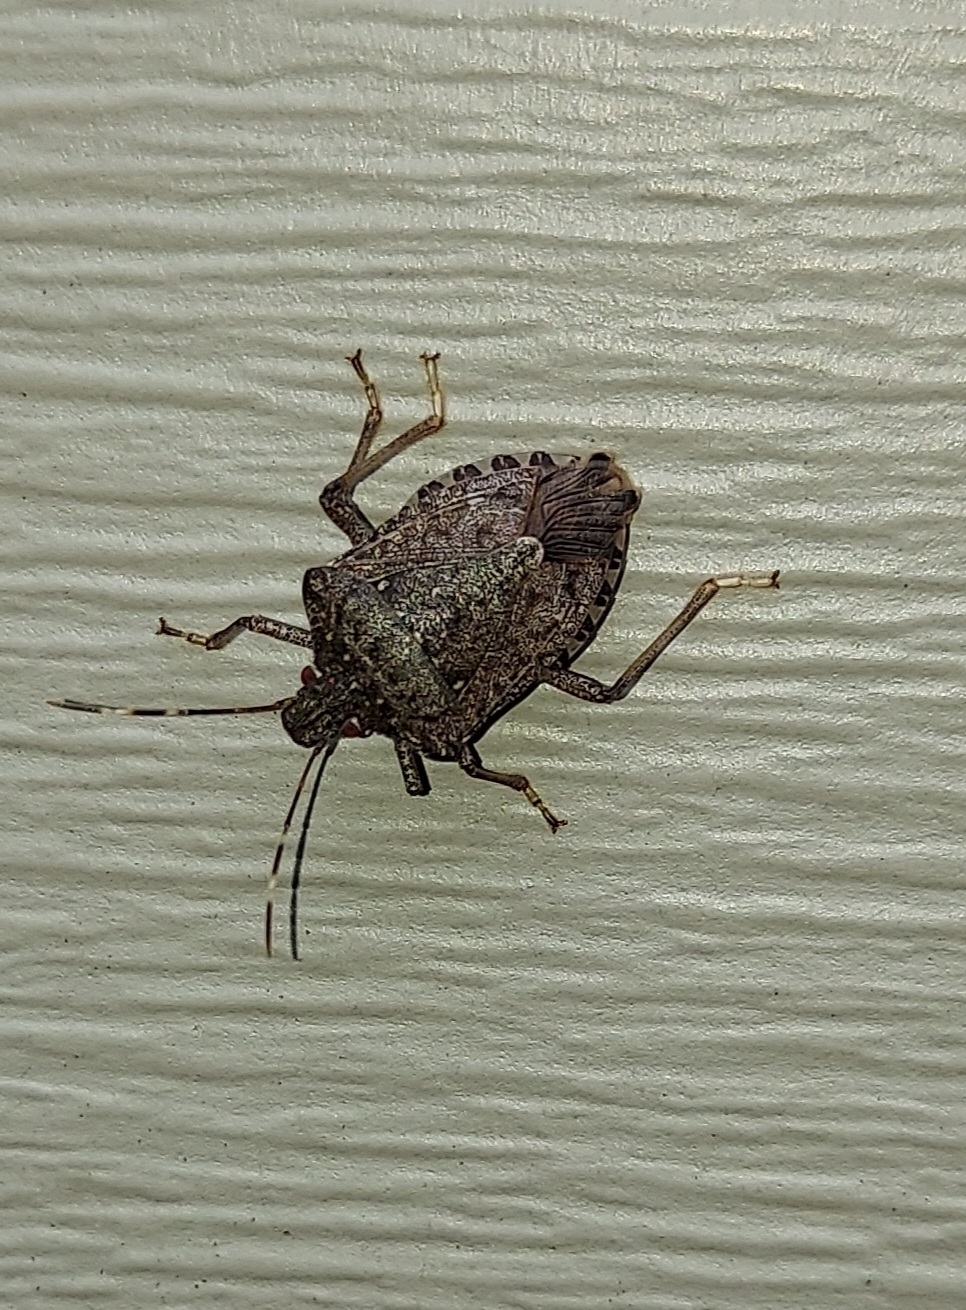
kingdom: Animalia
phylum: Arthropoda
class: Insecta
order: Hemiptera
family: Pentatomidae
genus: Halyomorpha
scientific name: Halyomorpha halys
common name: Brown marmorated stink bug
